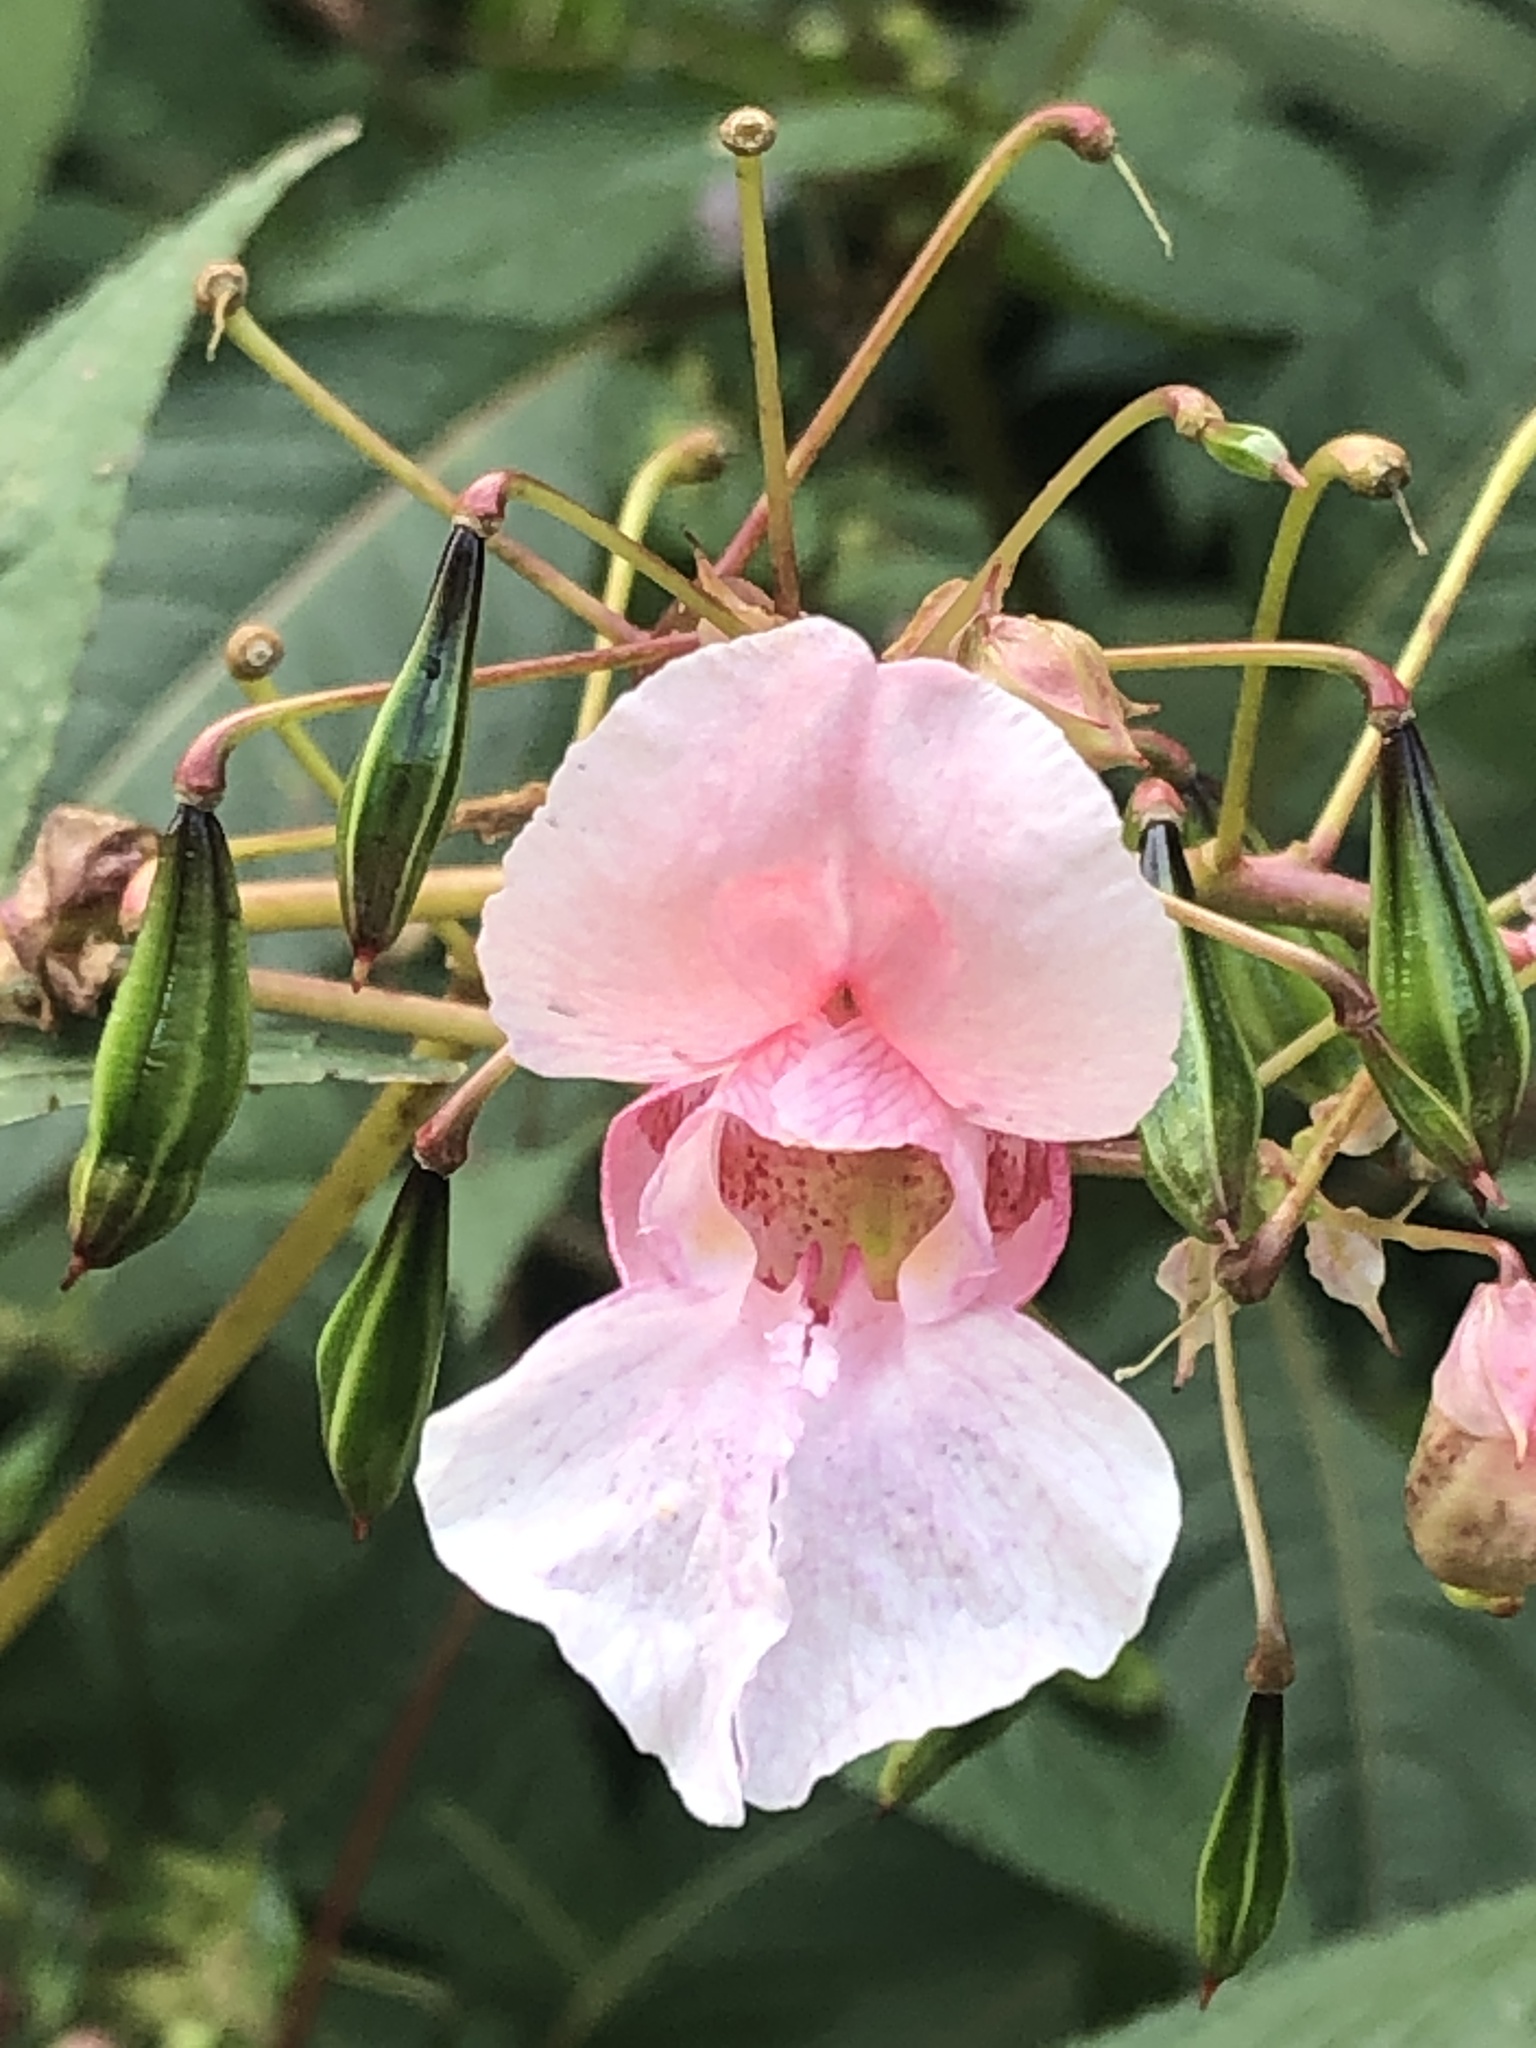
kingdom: Plantae
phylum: Tracheophyta
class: Magnoliopsida
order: Ericales
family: Balsaminaceae
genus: Impatiens
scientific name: Impatiens glandulifera
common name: Himalayan balsam
